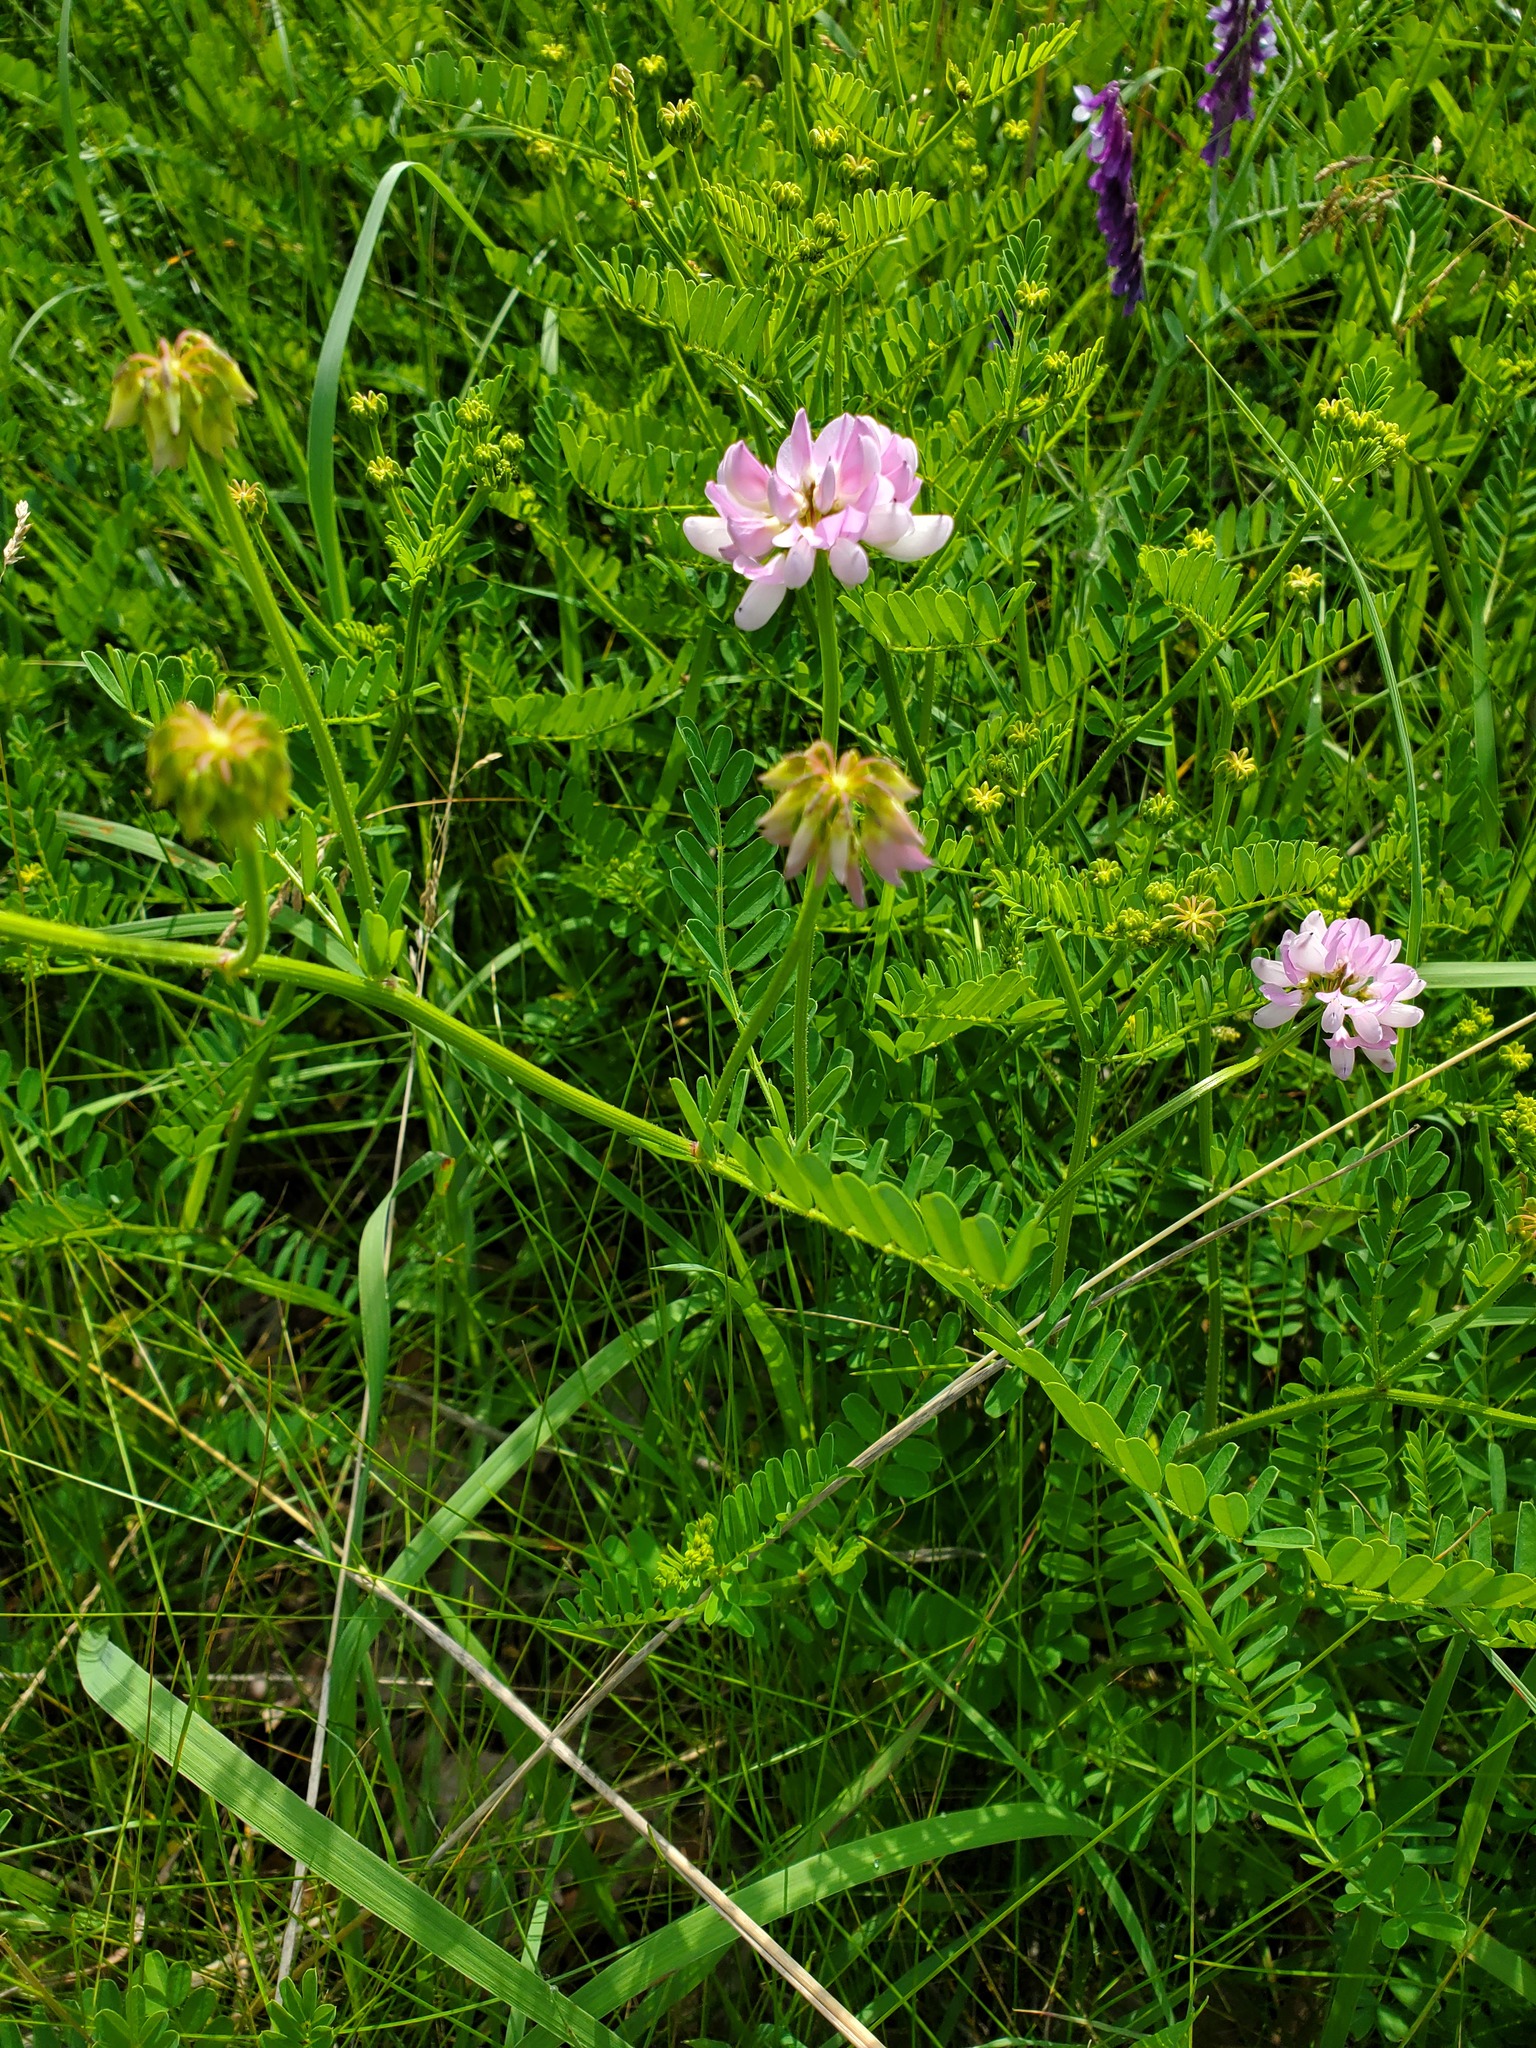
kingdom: Plantae
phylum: Tracheophyta
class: Magnoliopsida
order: Fabales
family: Fabaceae
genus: Coronilla
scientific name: Coronilla varia
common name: Crownvetch
